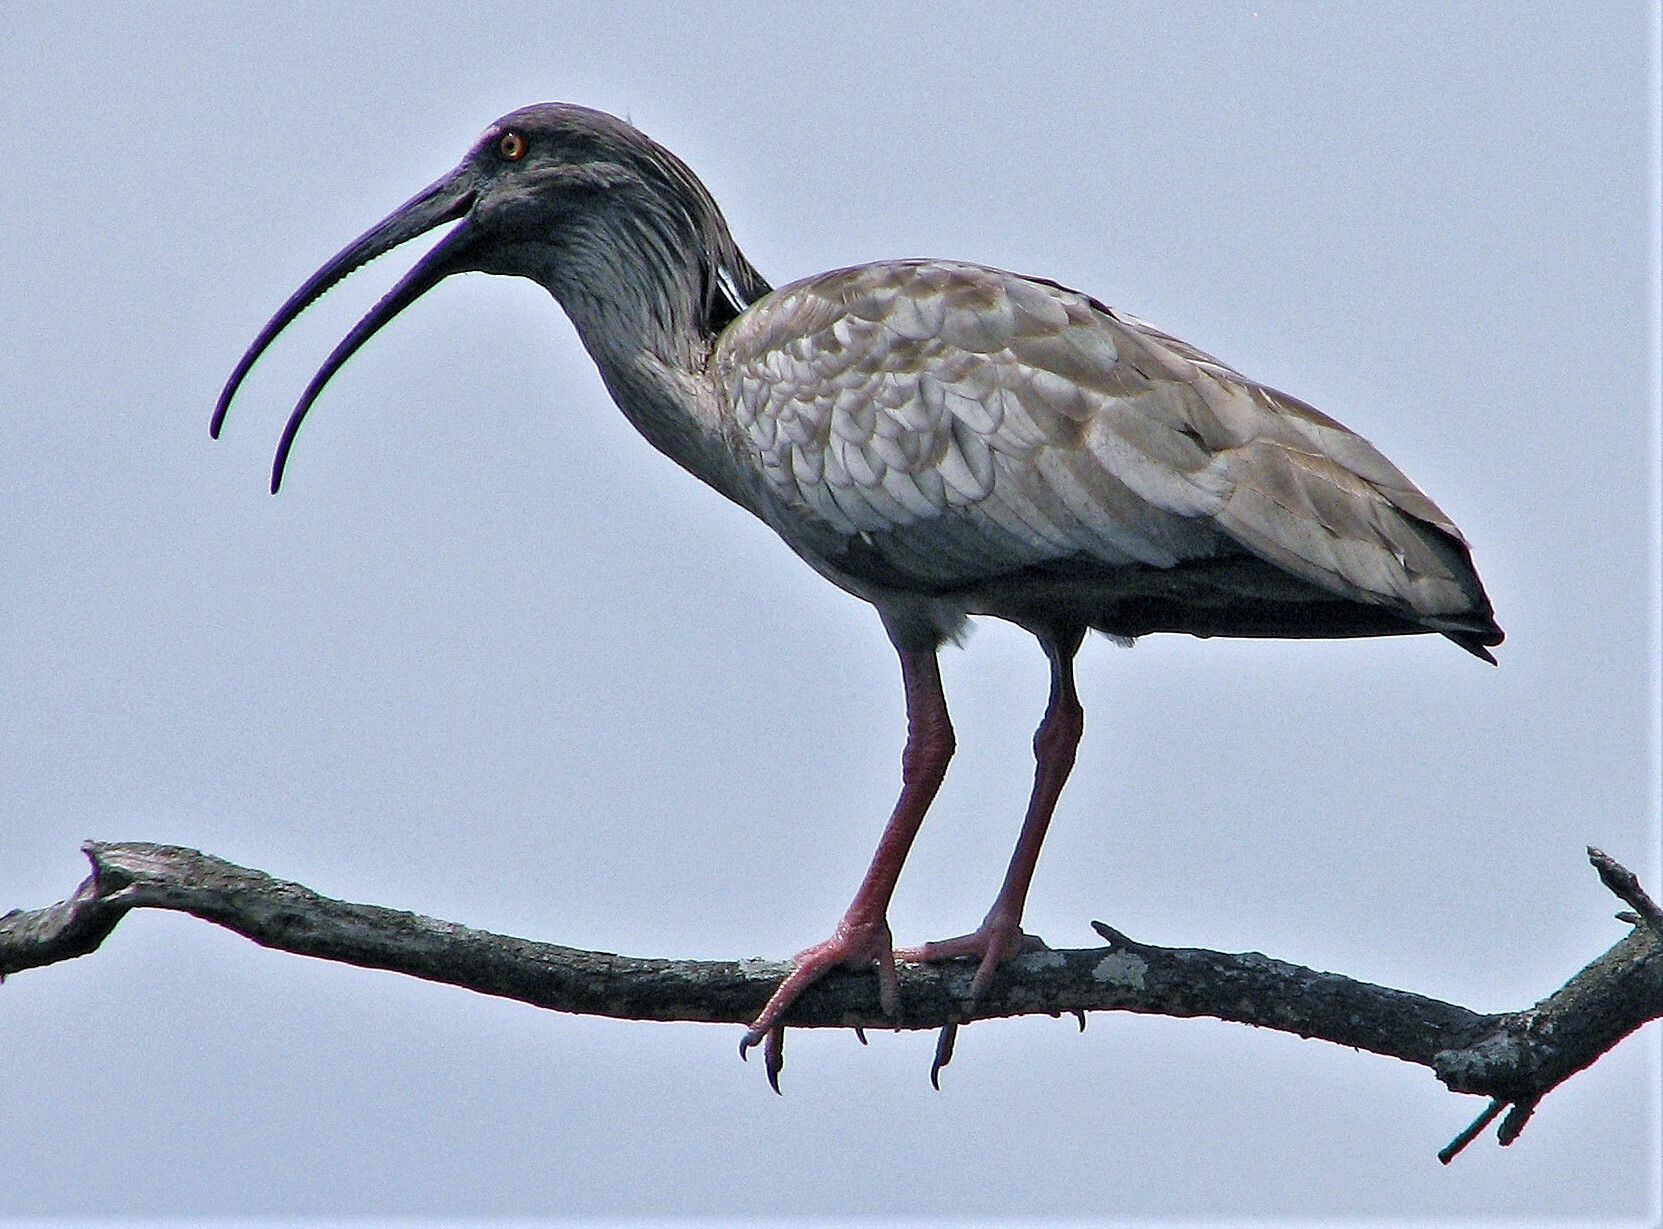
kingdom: Animalia
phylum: Chordata
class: Aves
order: Pelecaniformes
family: Threskiornithidae
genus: Theristicus
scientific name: Theristicus caerulescens
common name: Plumbeous ibis
